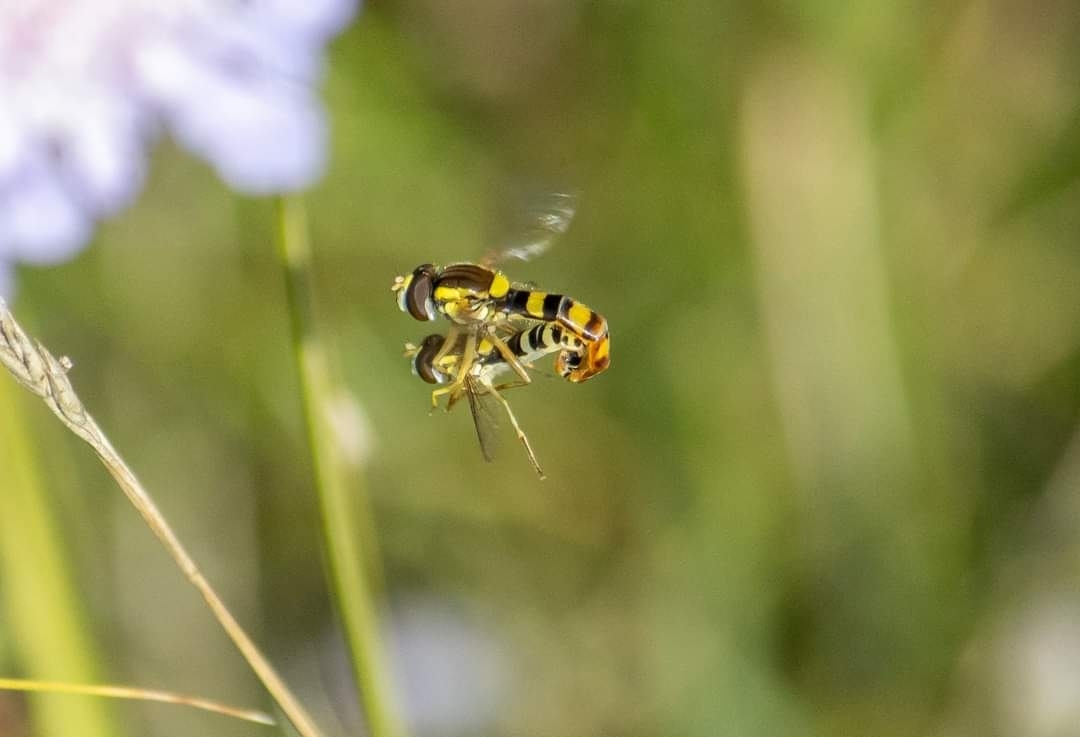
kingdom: Animalia
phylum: Arthropoda
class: Insecta
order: Diptera
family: Syrphidae
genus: Sphaerophoria
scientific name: Sphaerophoria scripta
